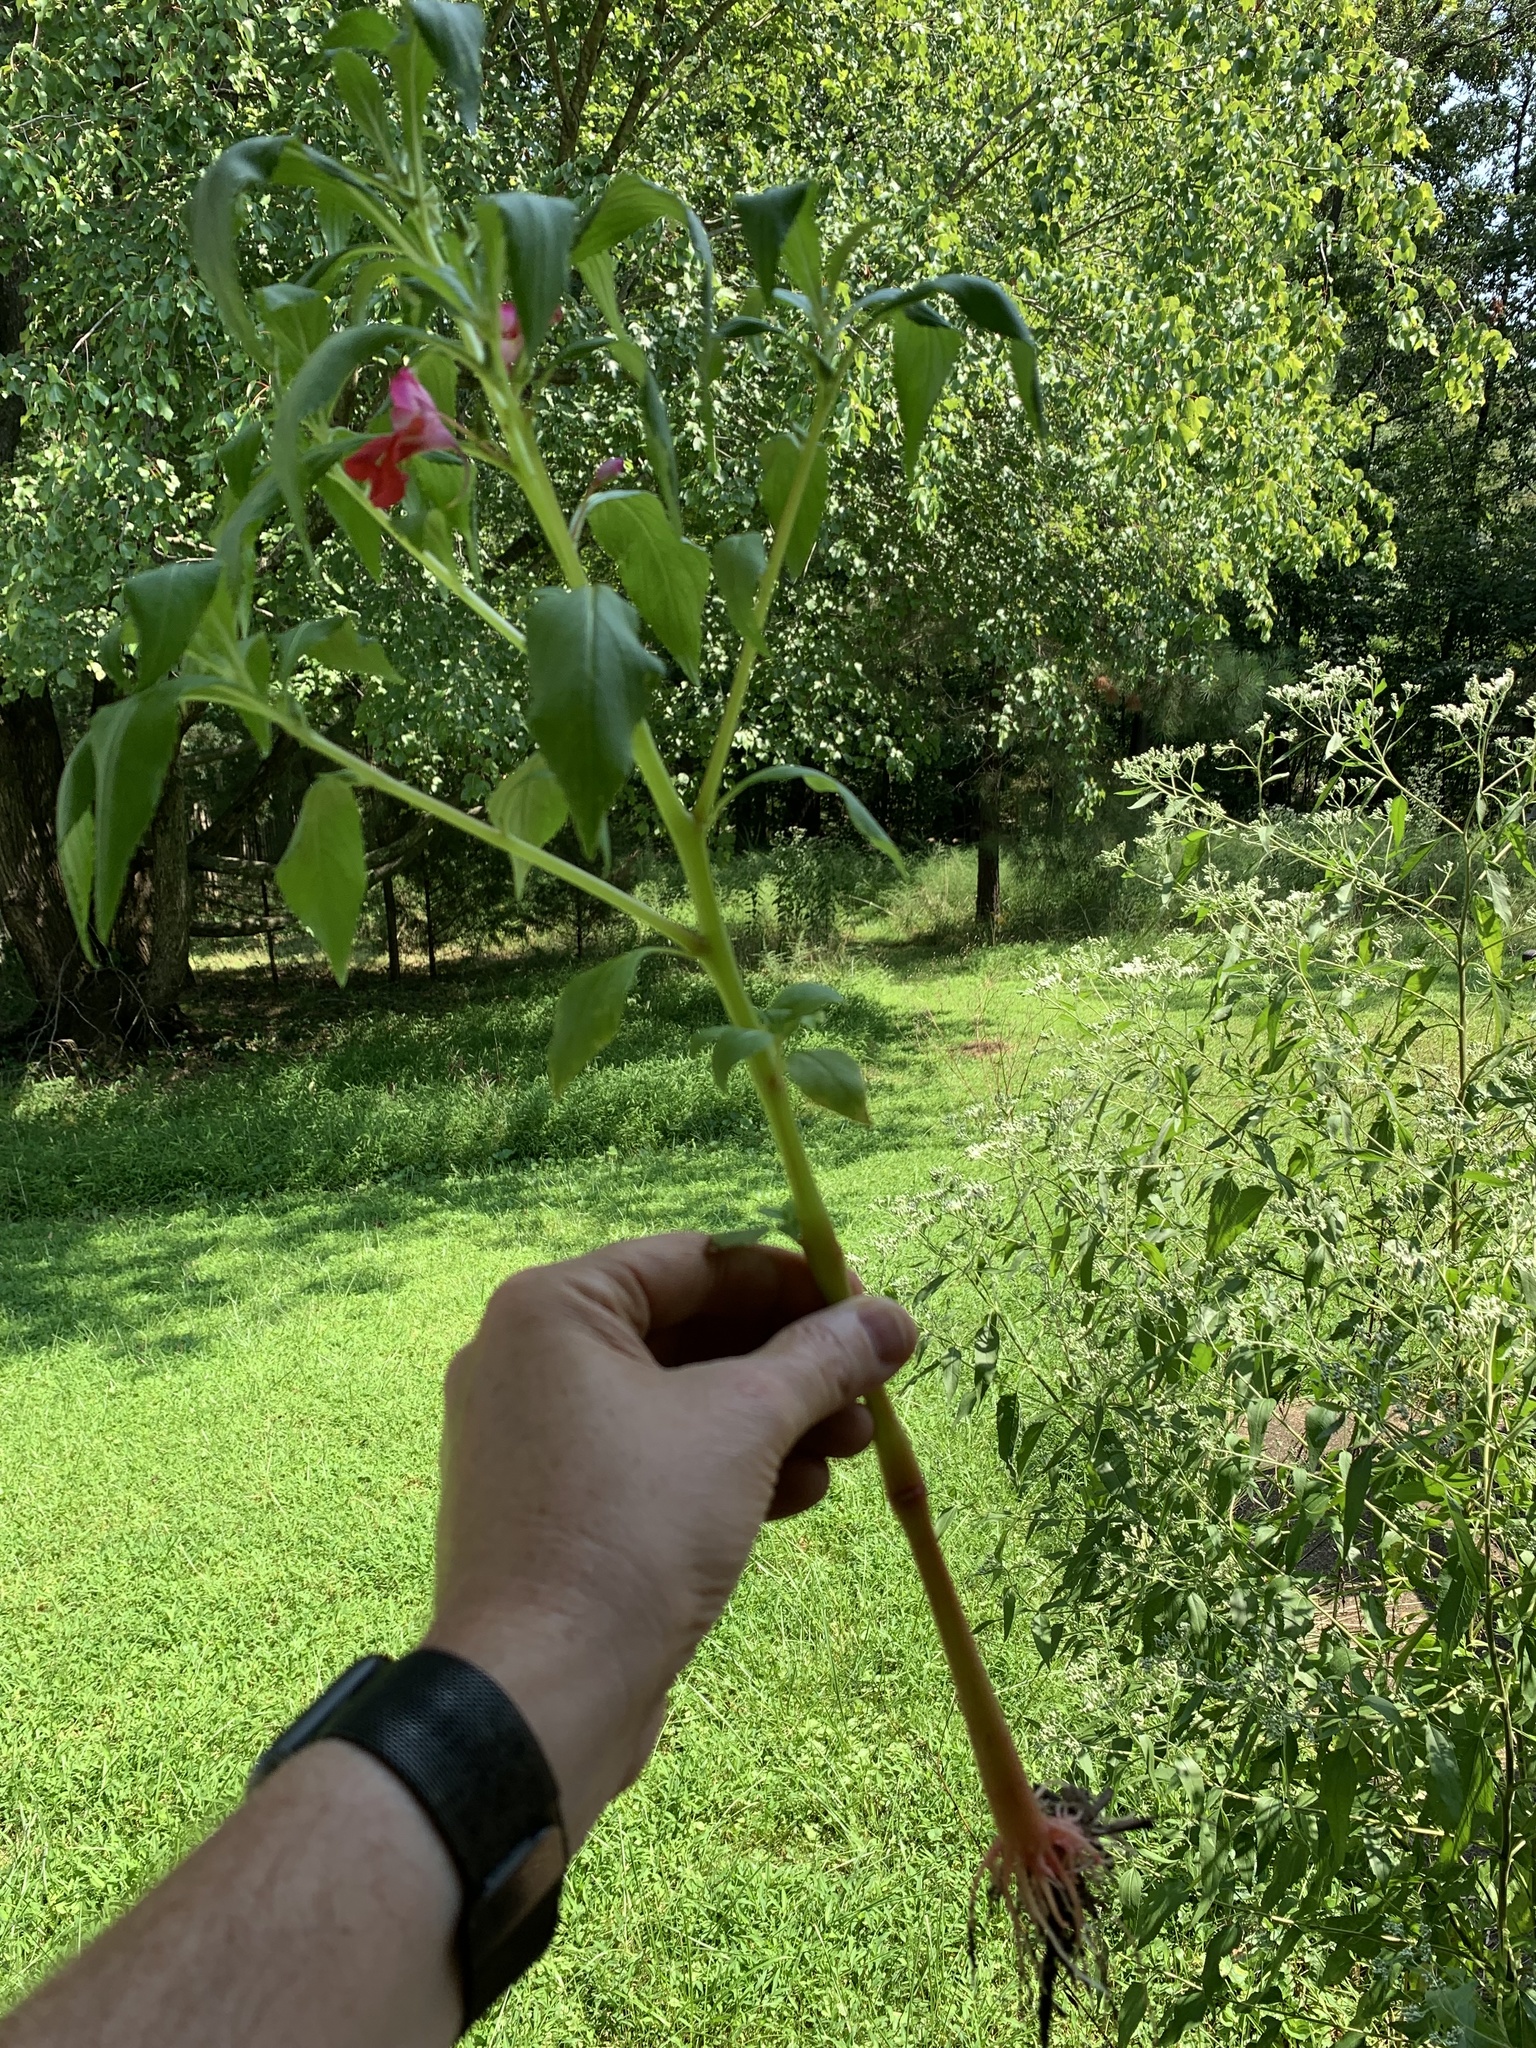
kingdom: Plantae
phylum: Tracheophyta
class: Magnoliopsida
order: Ericales
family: Balsaminaceae
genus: Impatiens
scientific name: Impatiens balsamina
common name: Balsam
